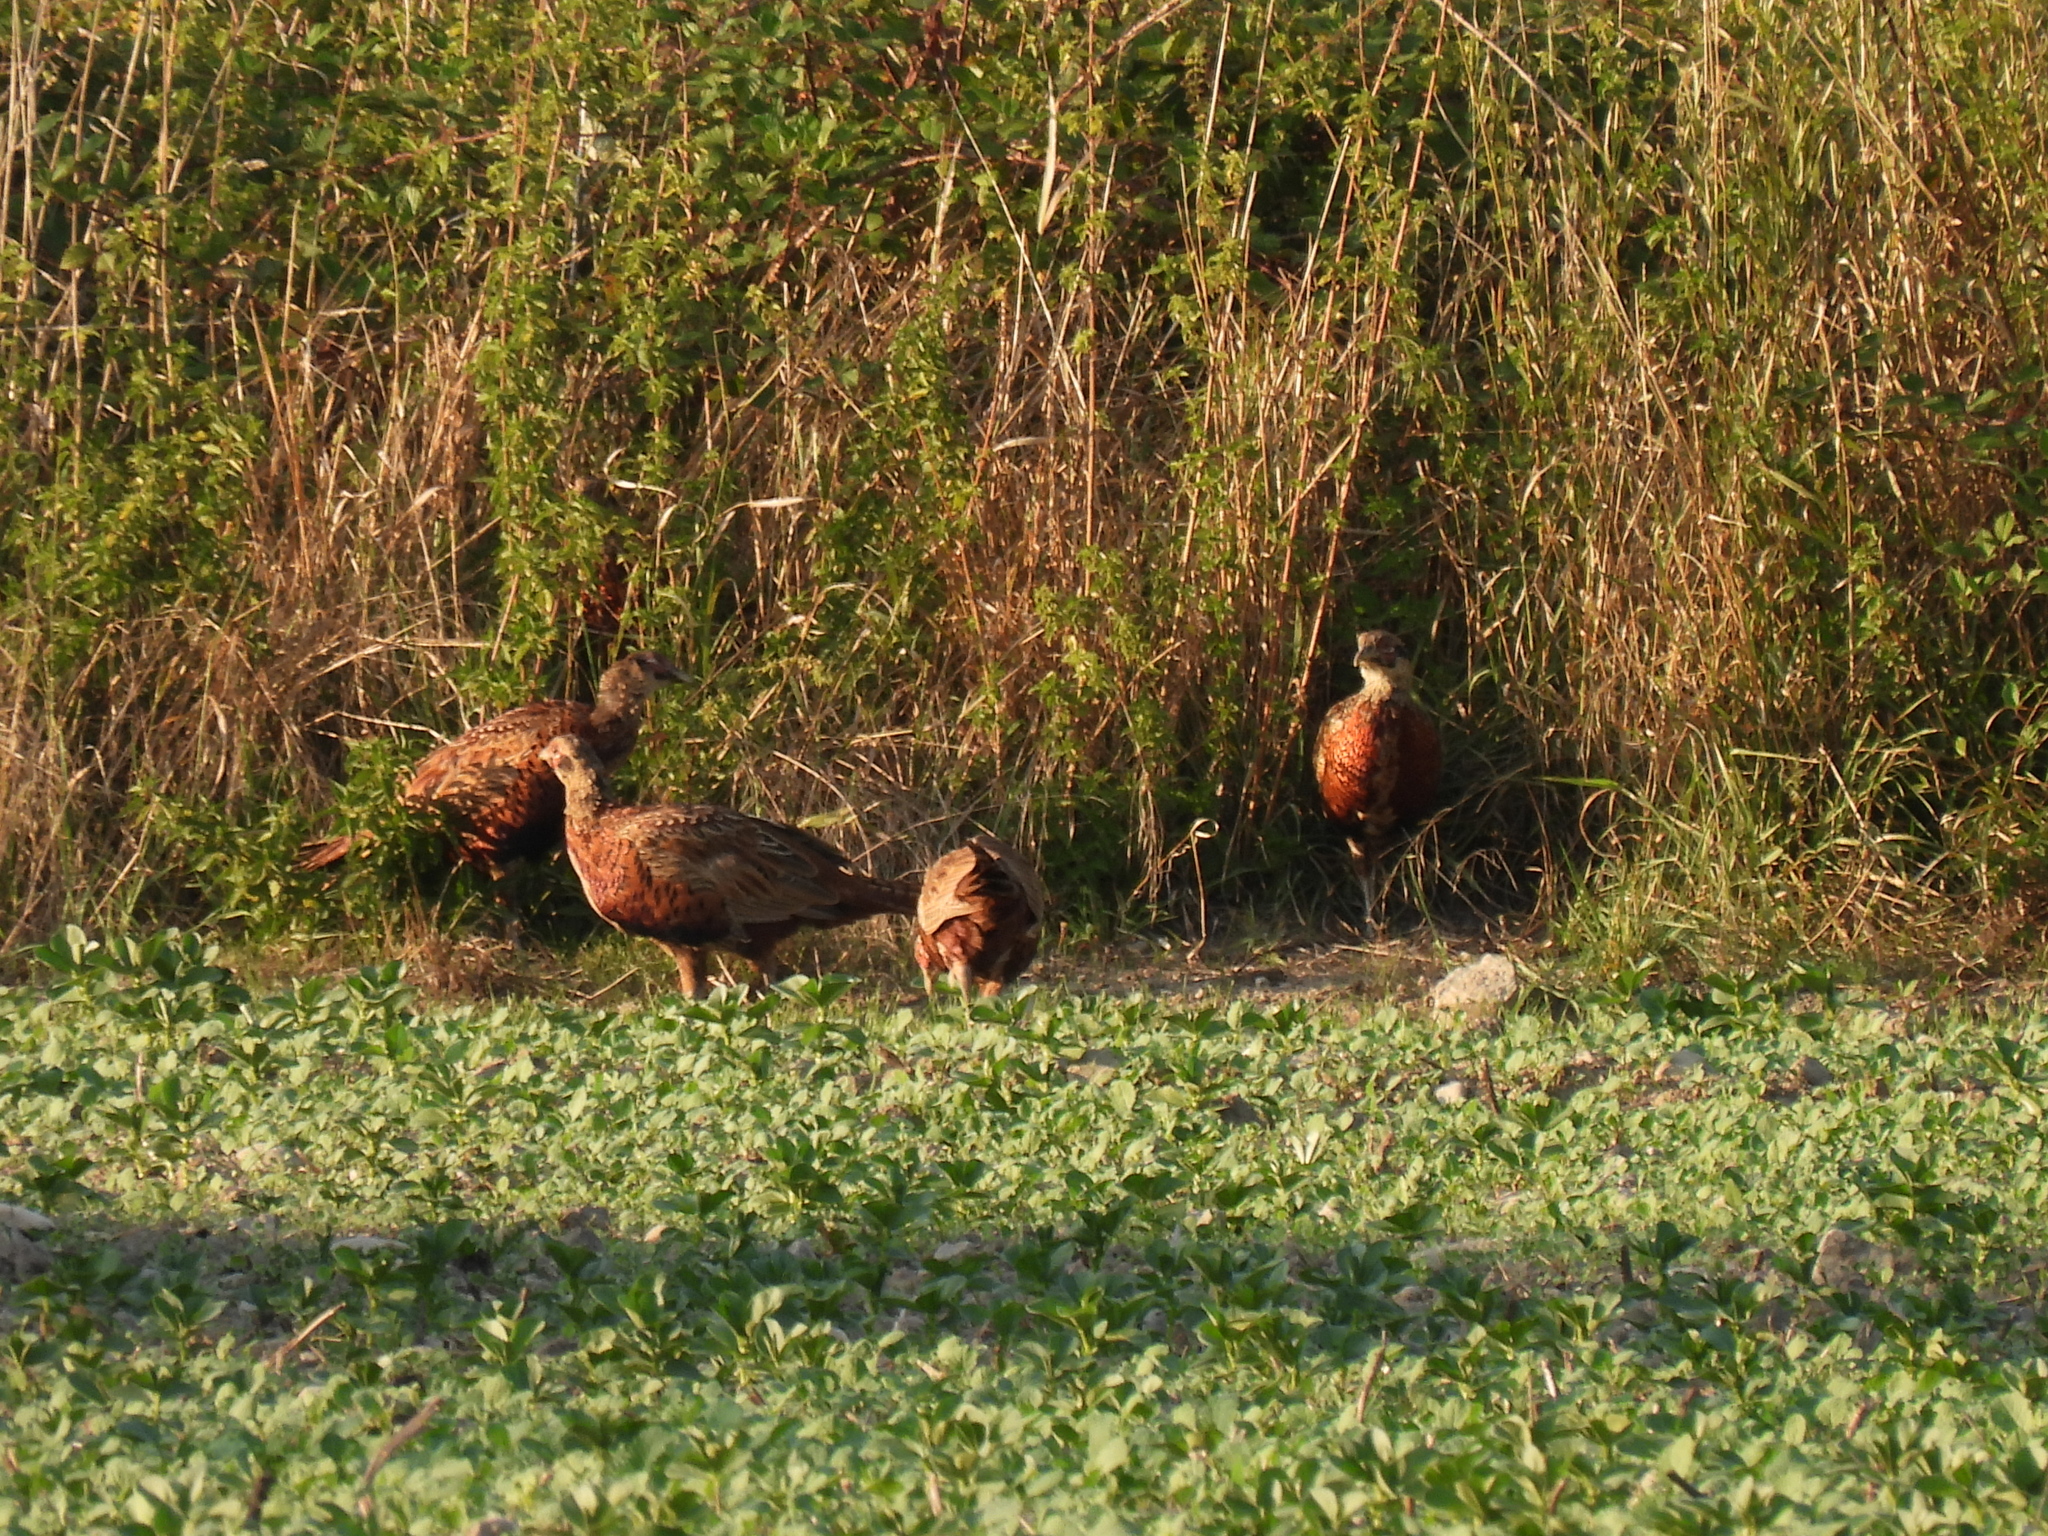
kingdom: Animalia
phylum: Chordata
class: Aves
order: Galliformes
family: Phasianidae
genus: Phasianus
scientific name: Phasianus colchicus
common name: Common pheasant
